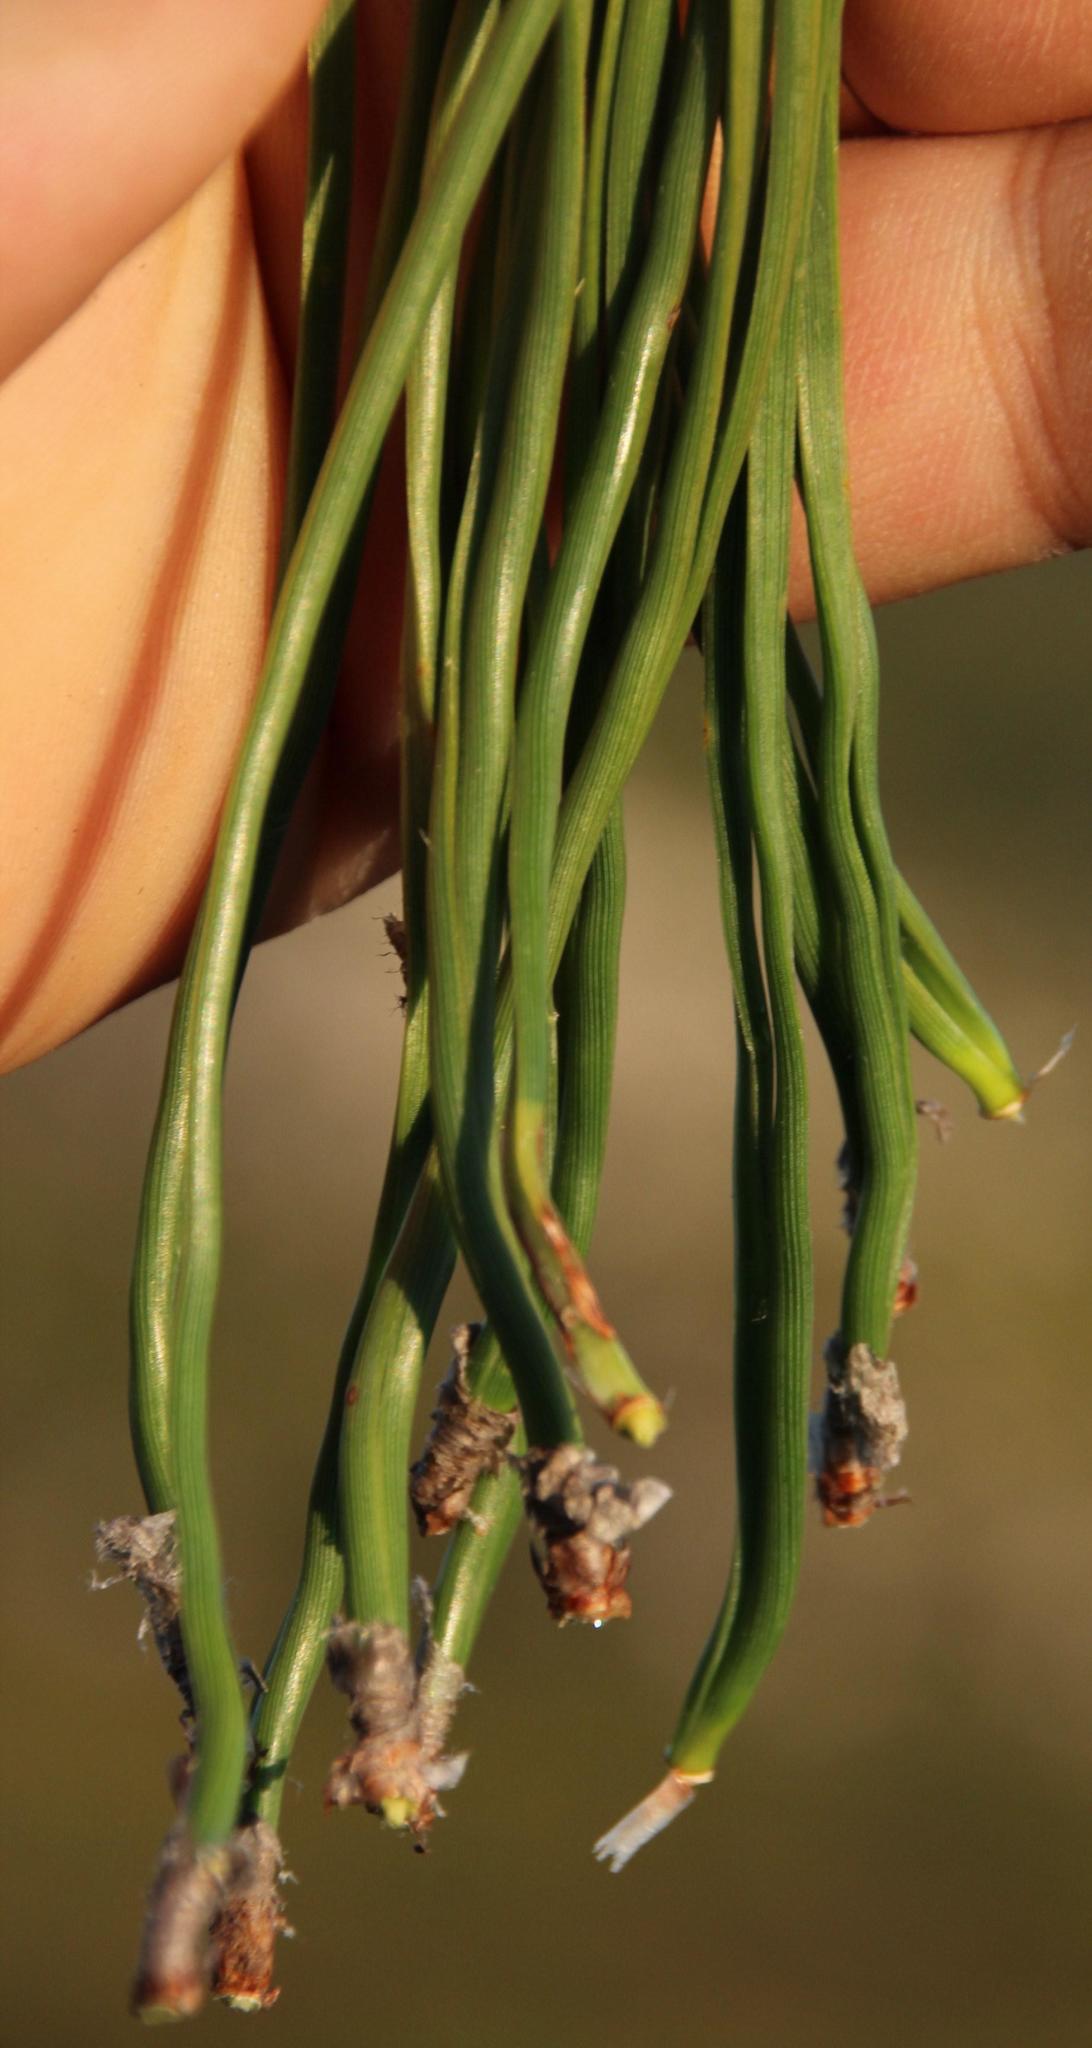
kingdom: Plantae
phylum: Tracheophyta
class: Pinopsida
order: Pinales
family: Pinaceae
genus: Pinus
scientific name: Pinus pinaster
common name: Maritime pine
